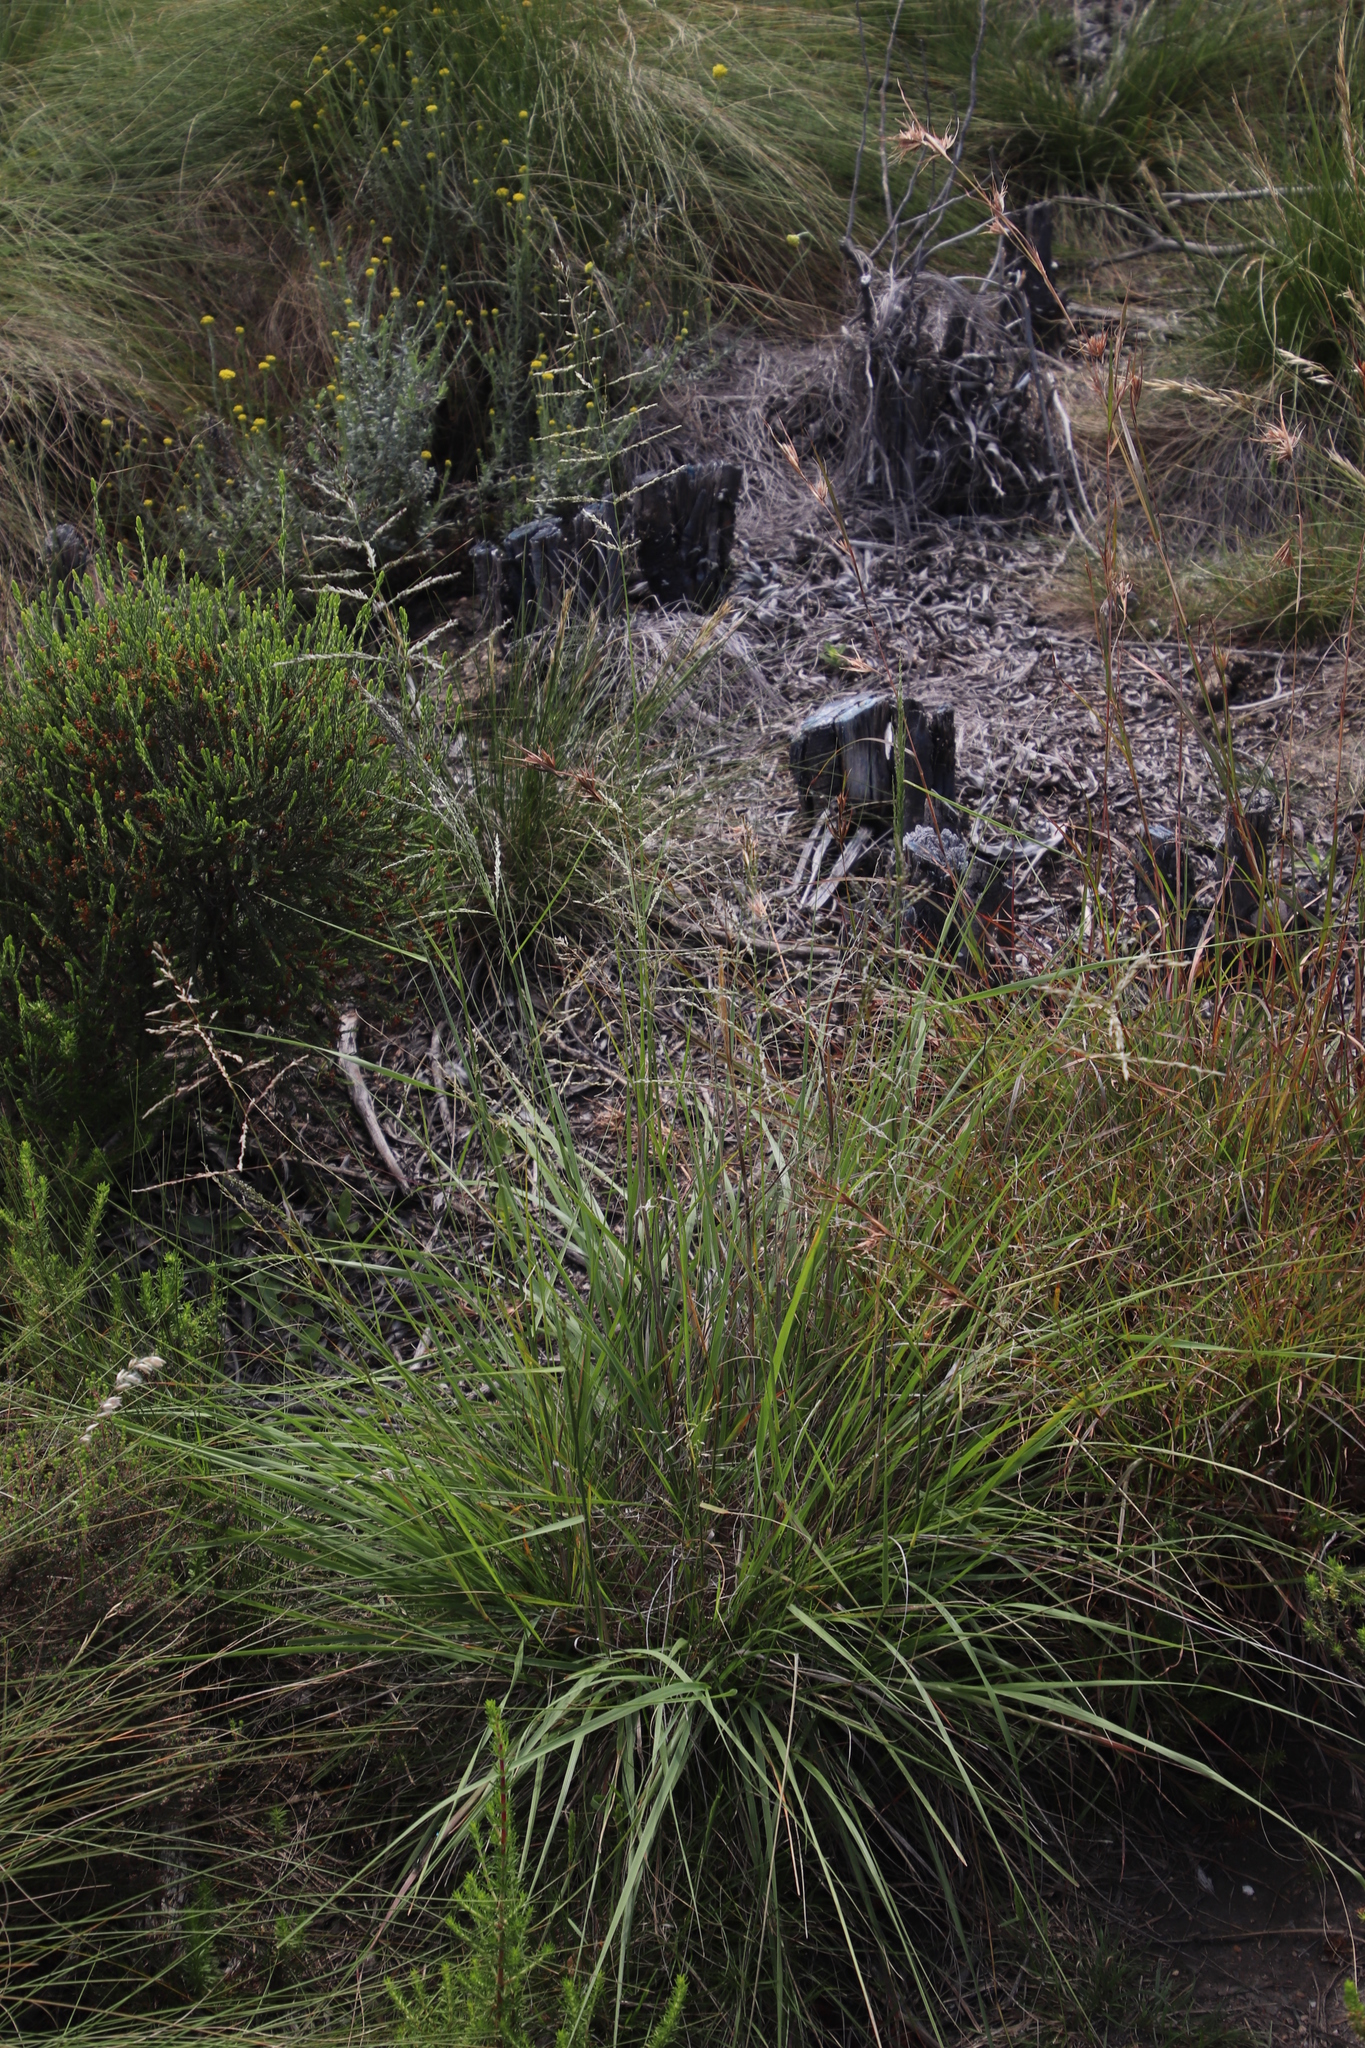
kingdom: Plantae
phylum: Tracheophyta
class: Liliopsida
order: Poales
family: Poaceae
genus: Eragrostis
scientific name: Eragrostis curvula
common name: African love-grass
